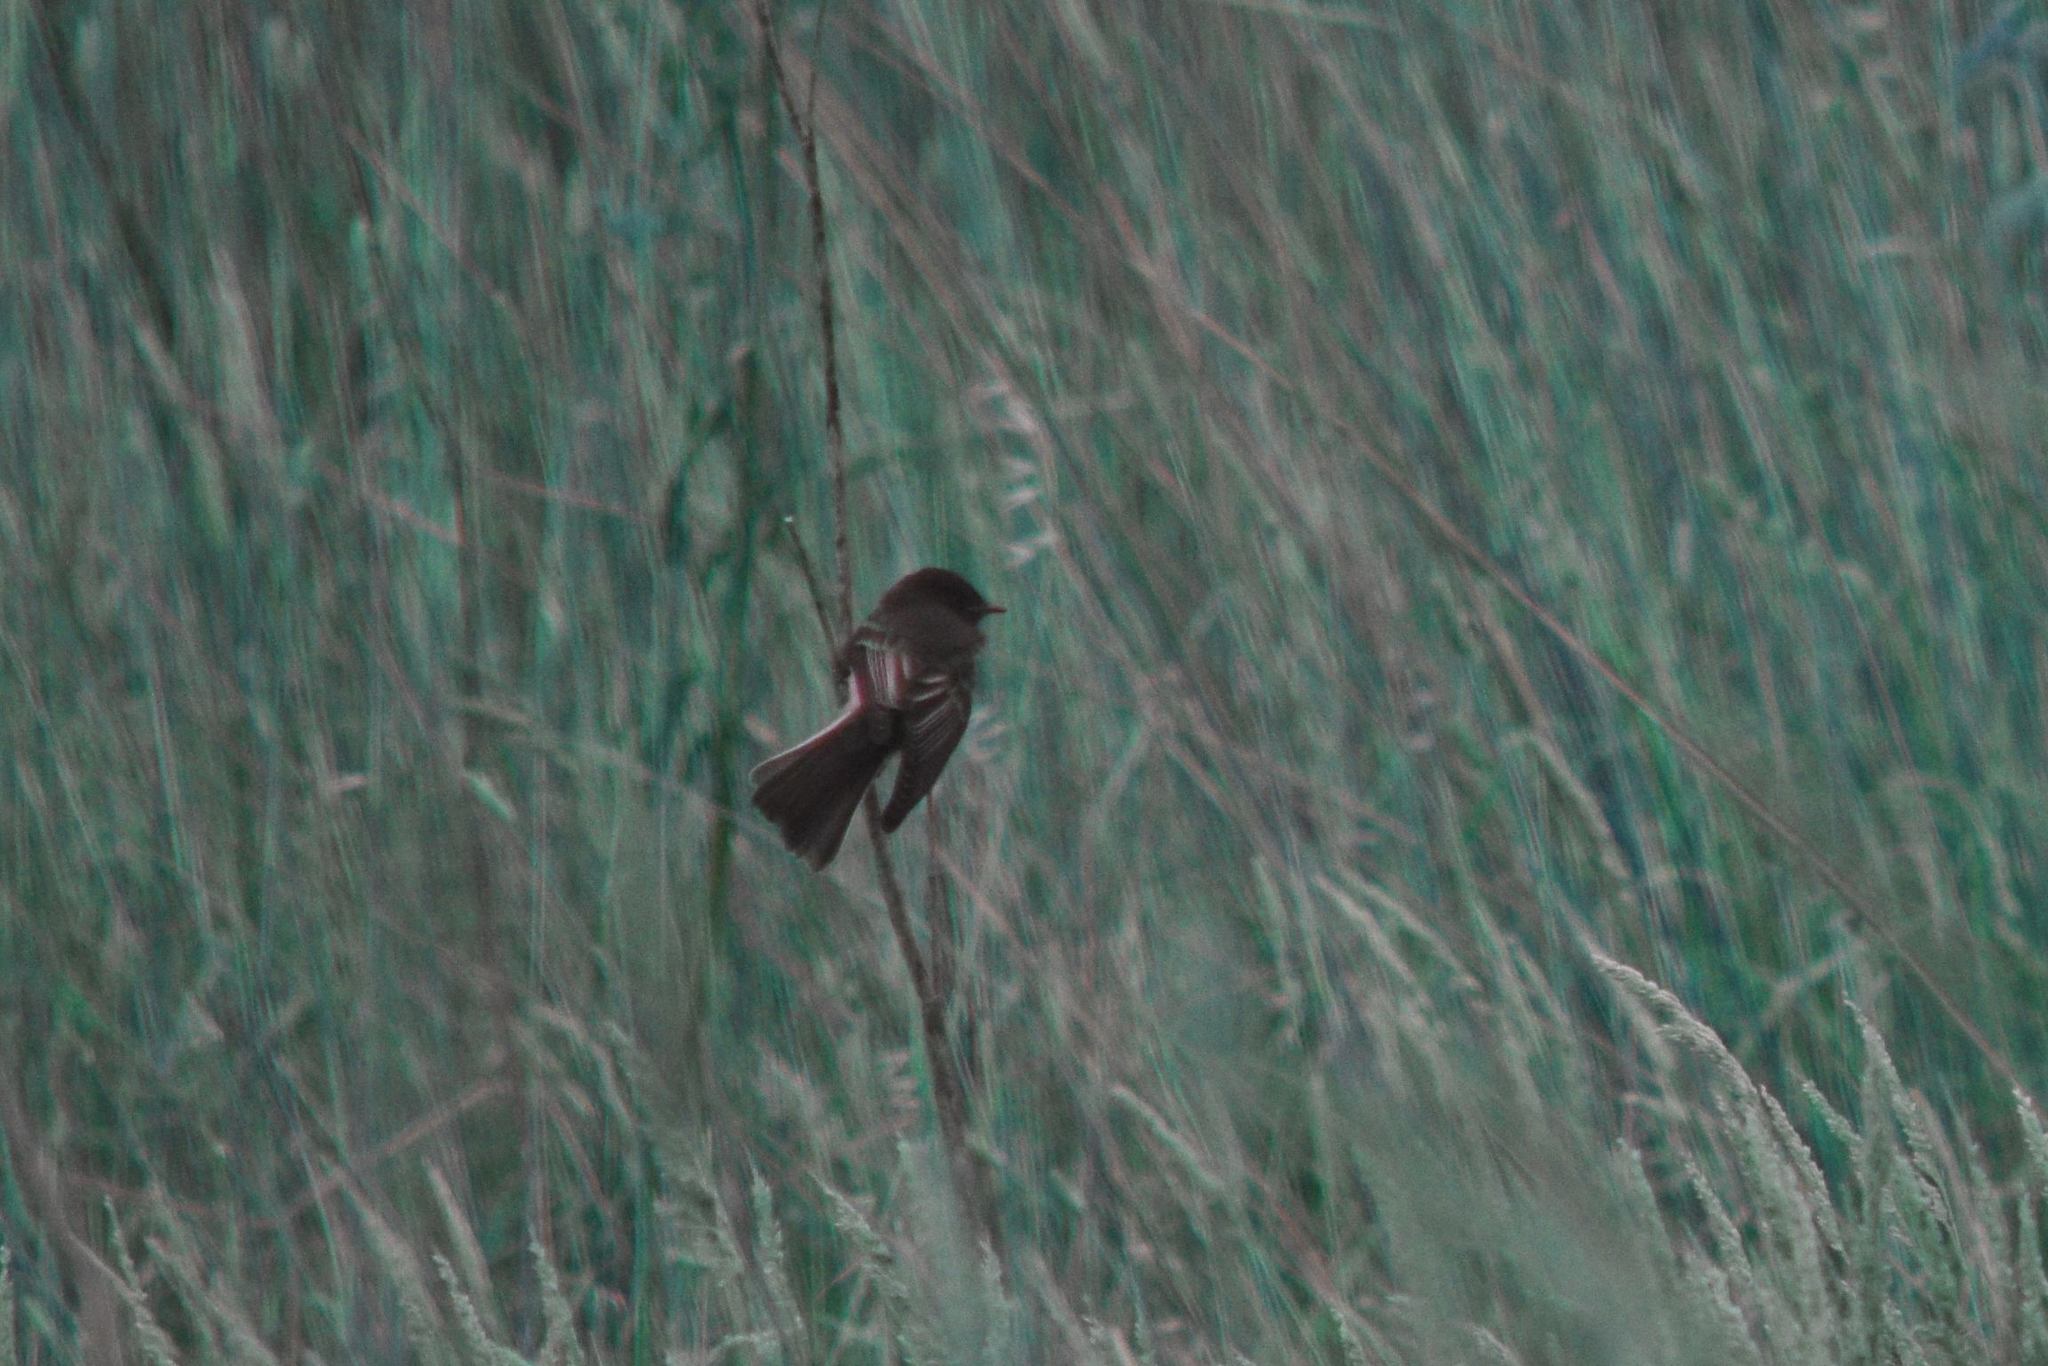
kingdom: Animalia
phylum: Chordata
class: Aves
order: Passeriformes
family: Tyrannidae
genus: Sayornis
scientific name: Sayornis nigricans
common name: Black phoebe
